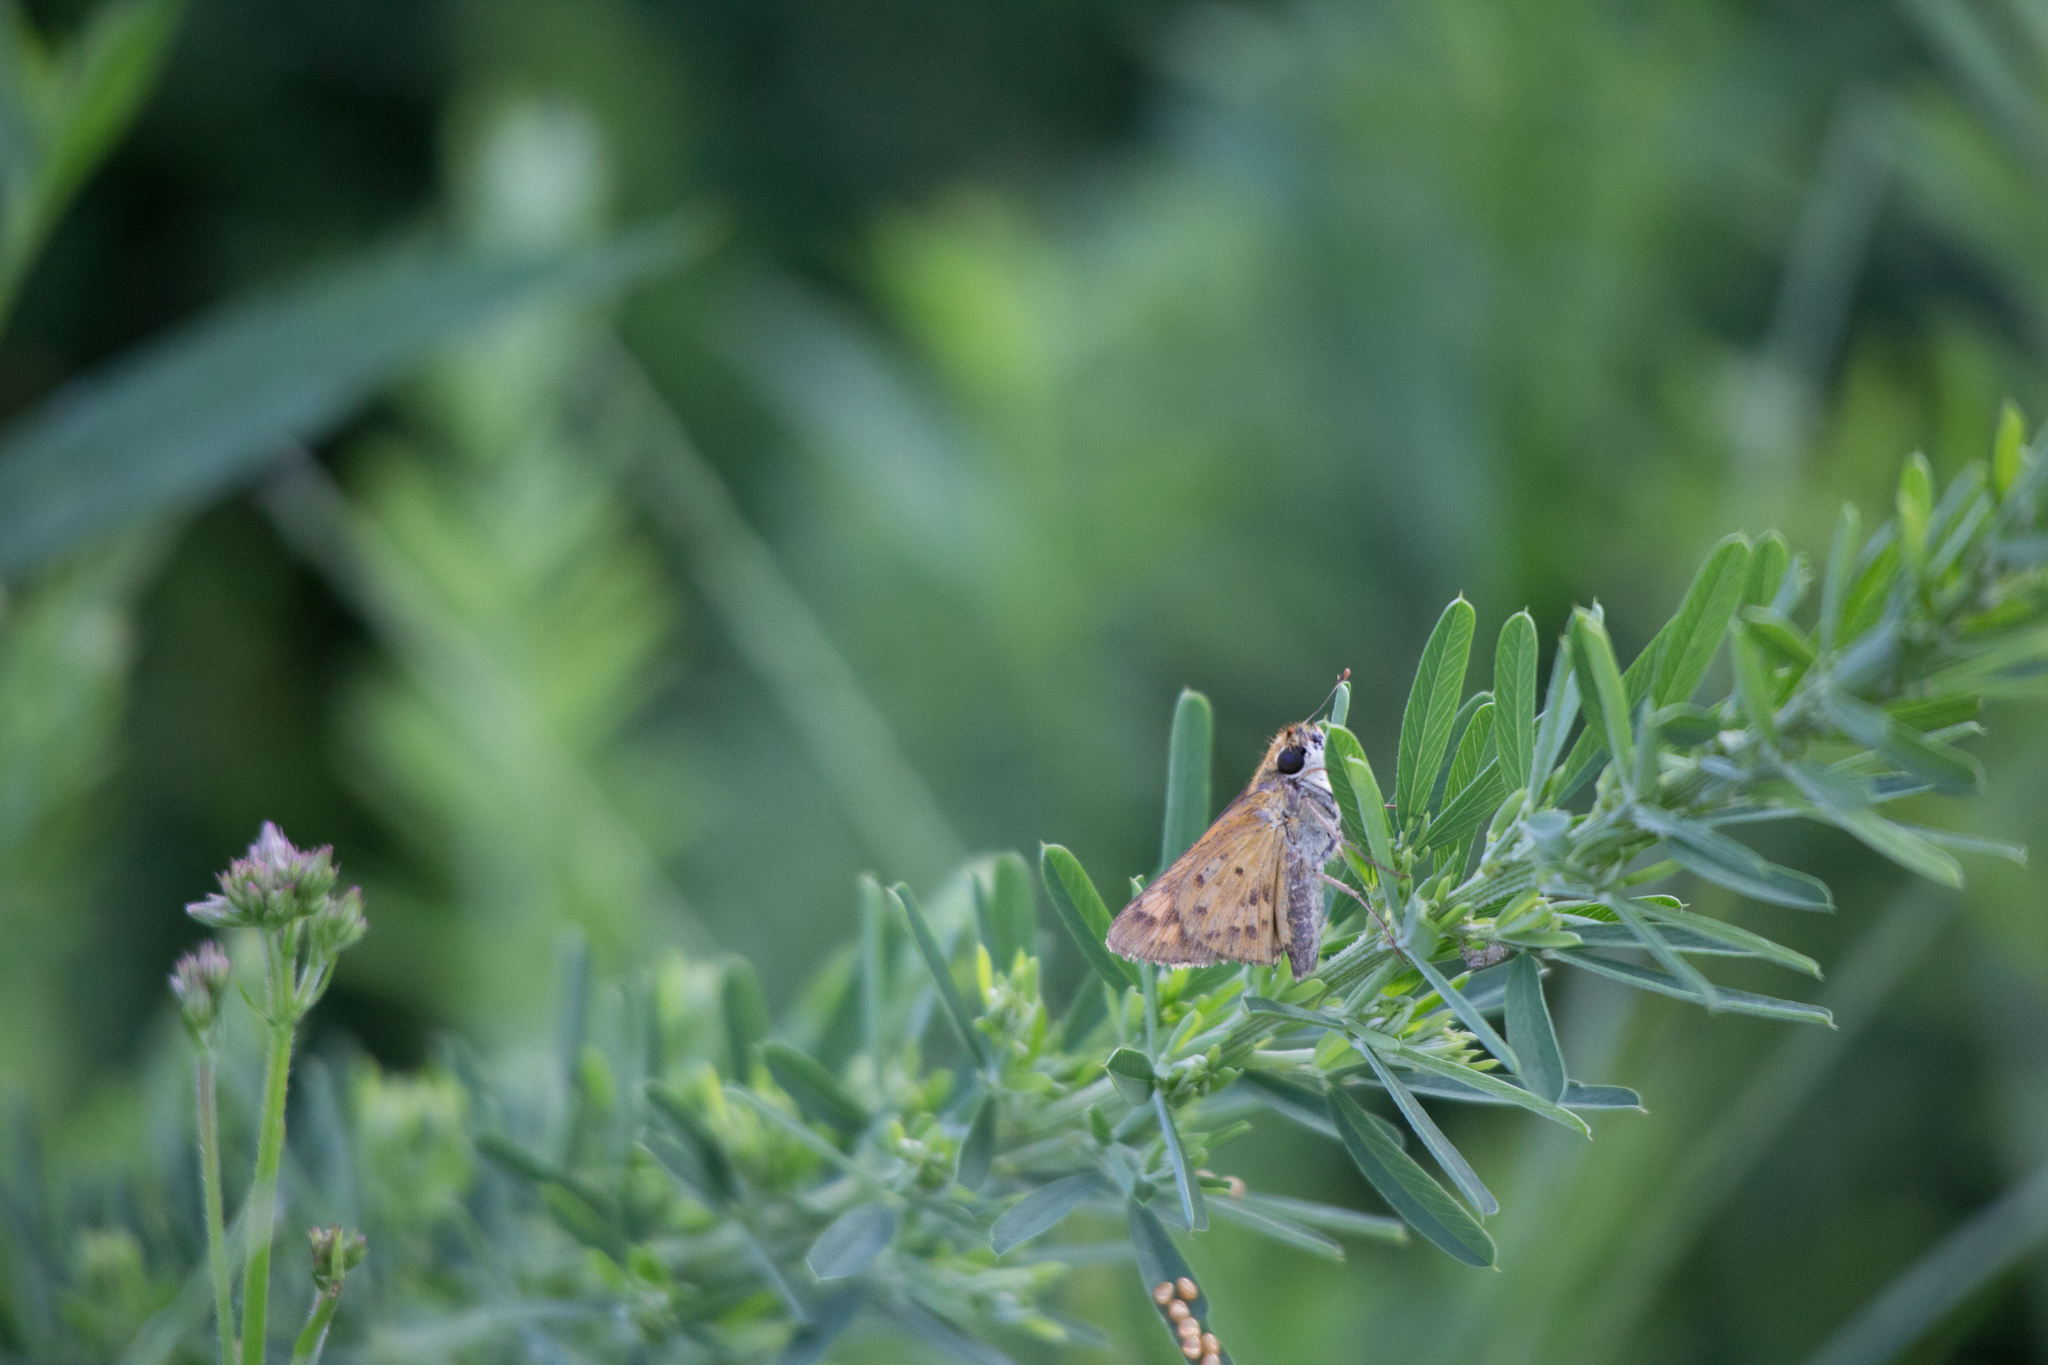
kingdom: Animalia
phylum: Arthropoda
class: Insecta
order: Lepidoptera
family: Hesperiidae
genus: Hylephila
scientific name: Hylephila phyleus
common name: Fiery skipper
